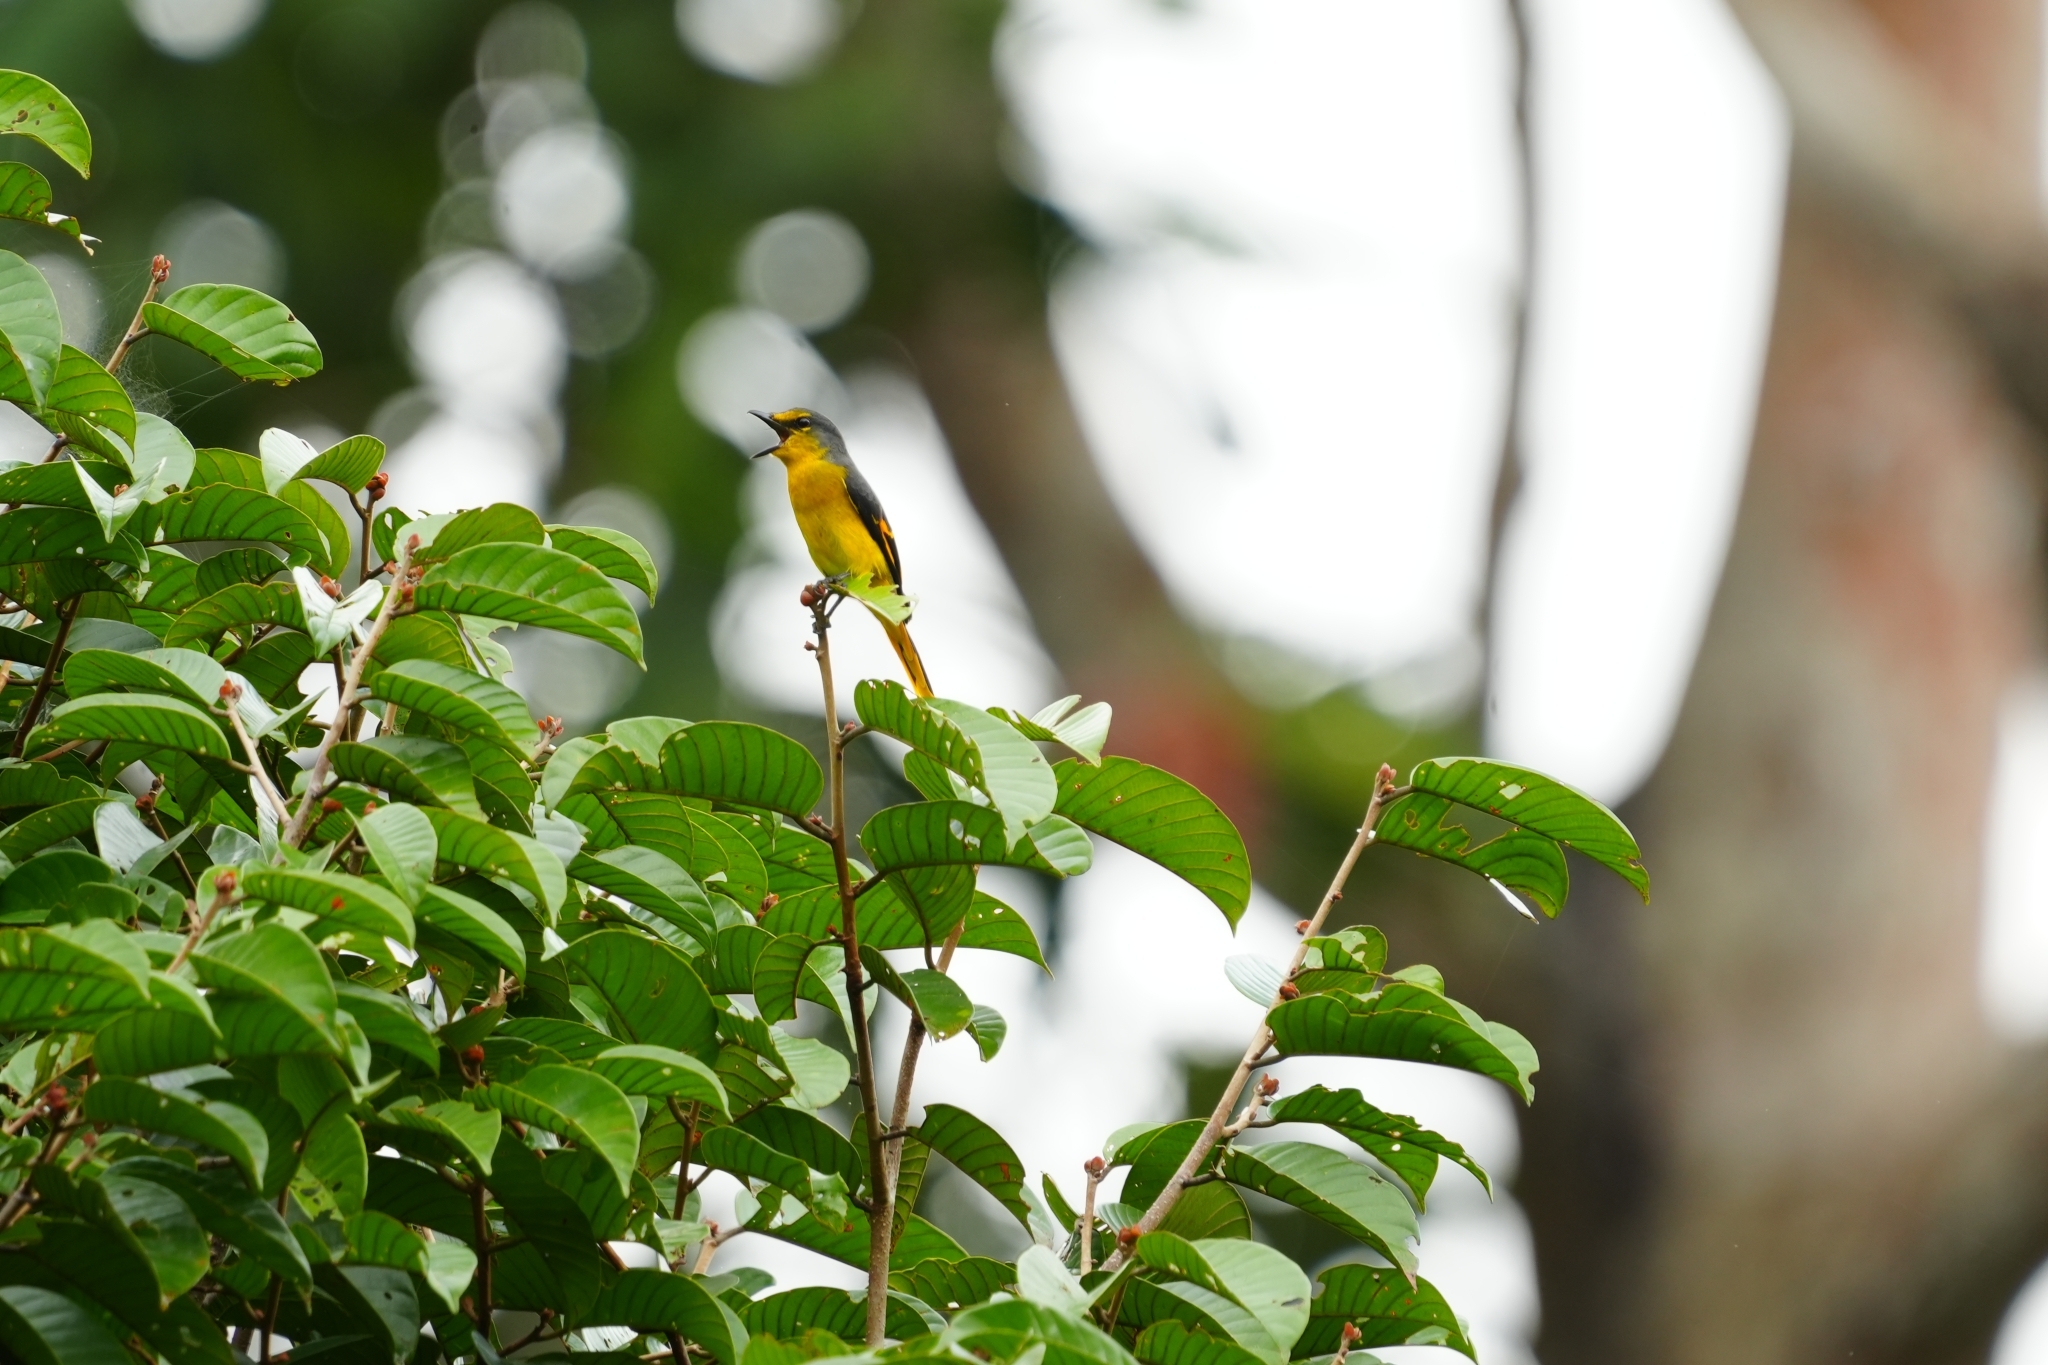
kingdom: Animalia
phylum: Chordata
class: Aves
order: Passeriformes
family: Campephagidae
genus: Pericrocotus
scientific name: Pericrocotus igneus
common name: Fiery minivet
